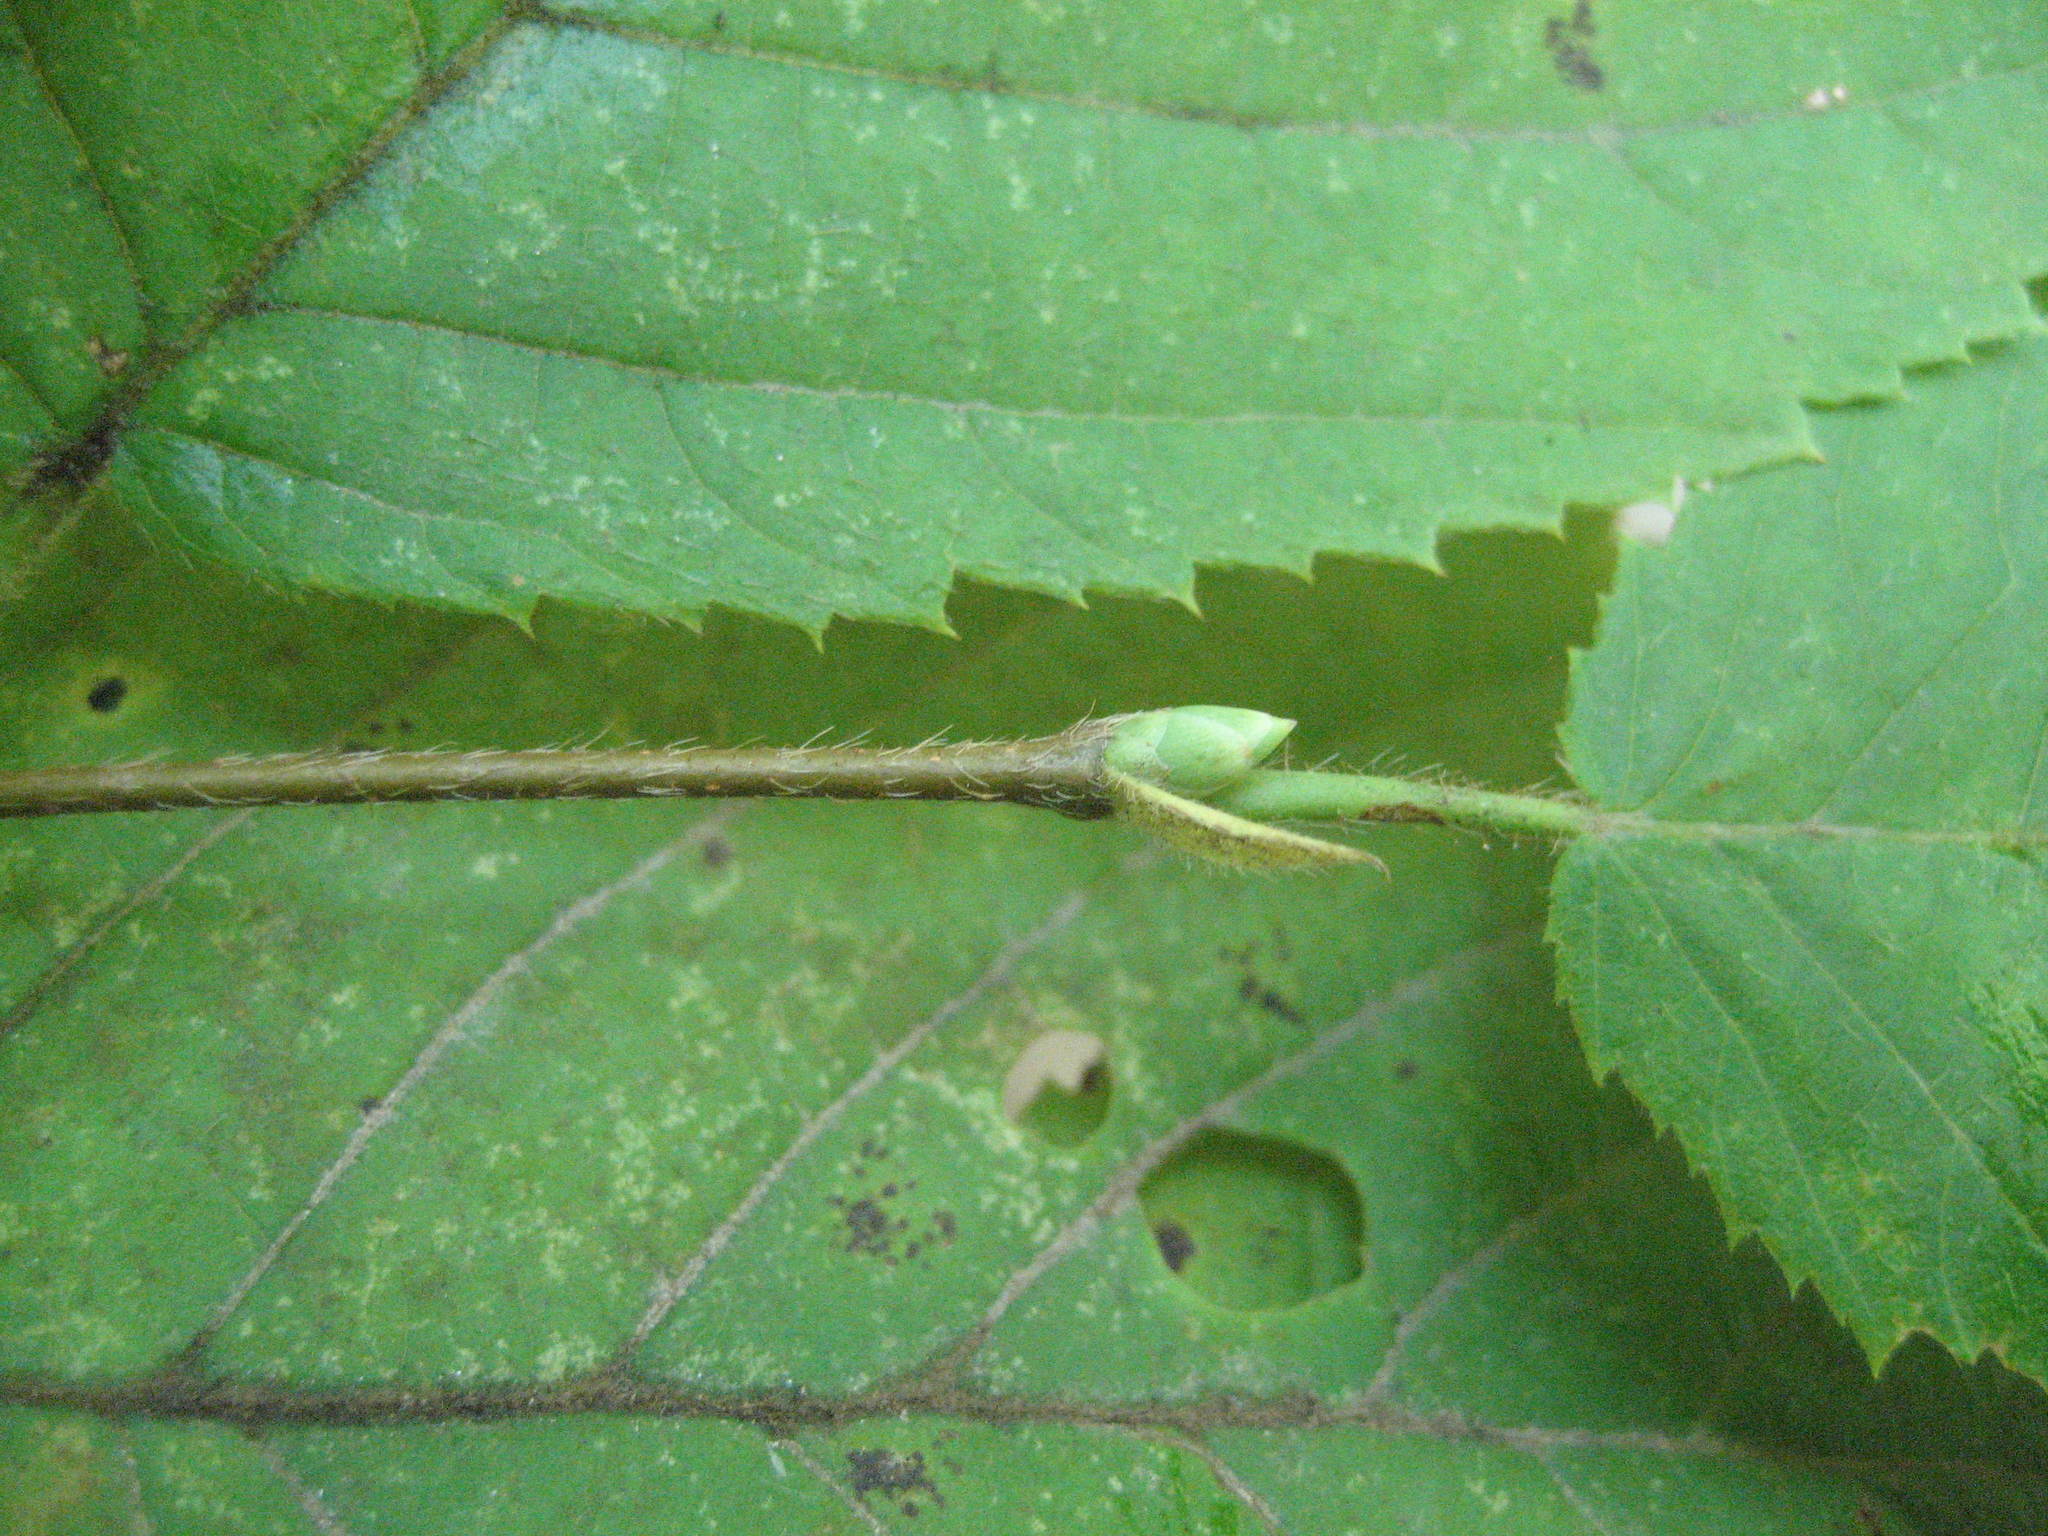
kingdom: Plantae
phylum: Tracheophyta
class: Magnoliopsida
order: Fagales
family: Betulaceae
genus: Ostrya
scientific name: Ostrya virginiana
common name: Ironwood
